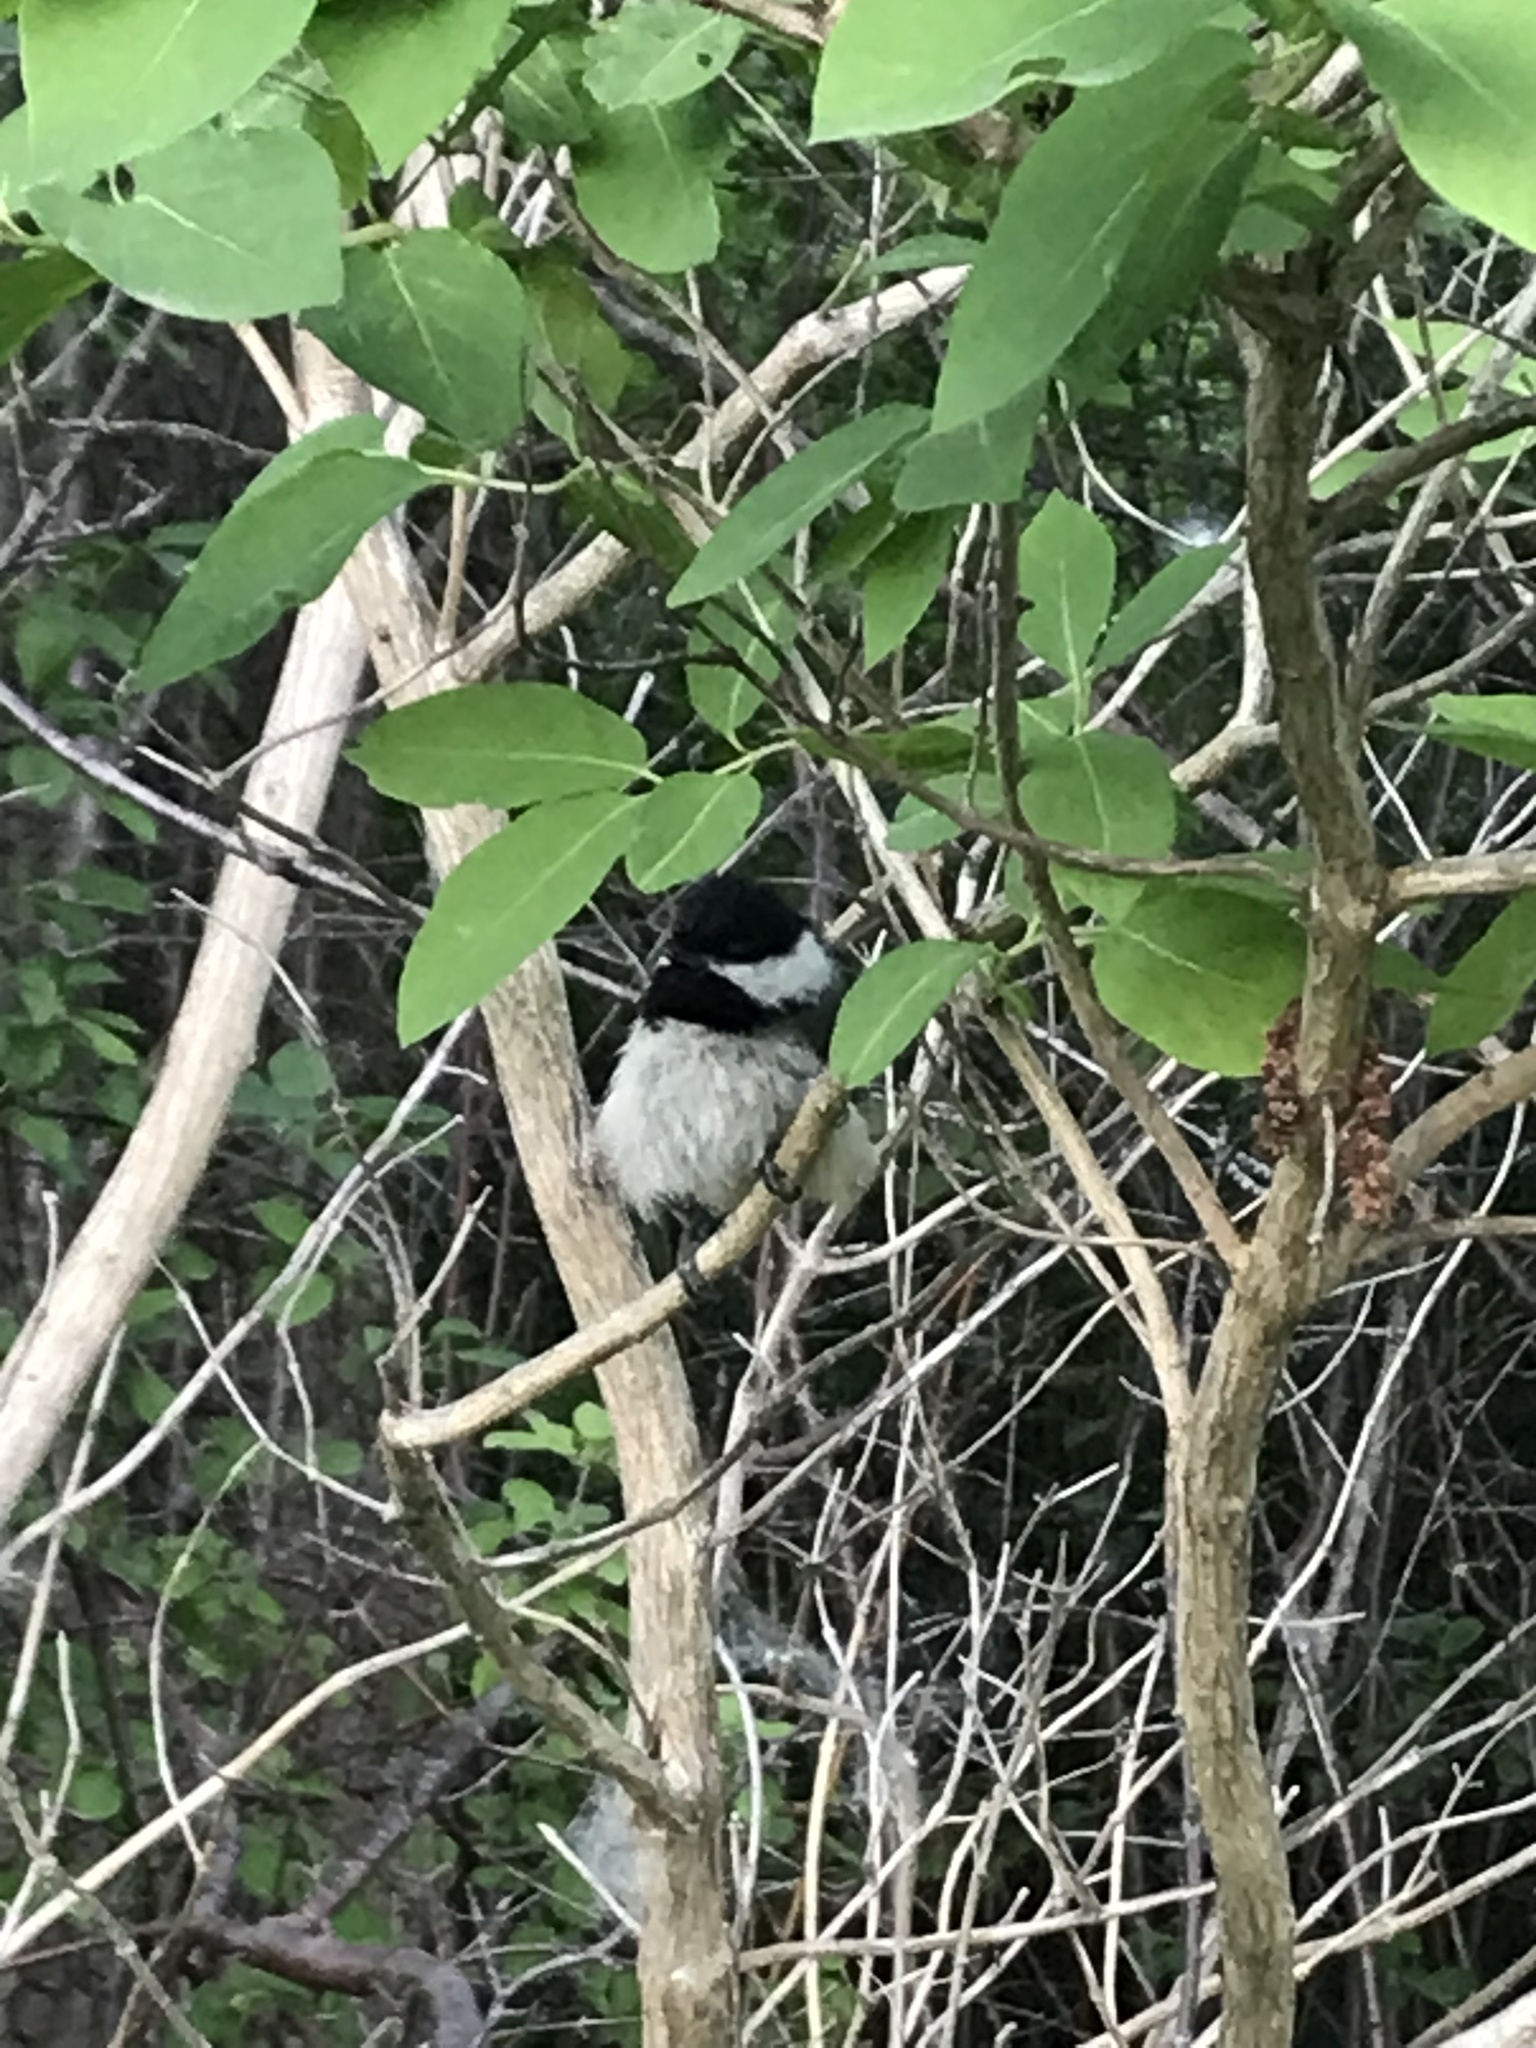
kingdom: Animalia
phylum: Chordata
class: Aves
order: Passeriformes
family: Paridae
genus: Poecile
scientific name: Poecile atricapillus
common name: Black-capped chickadee
